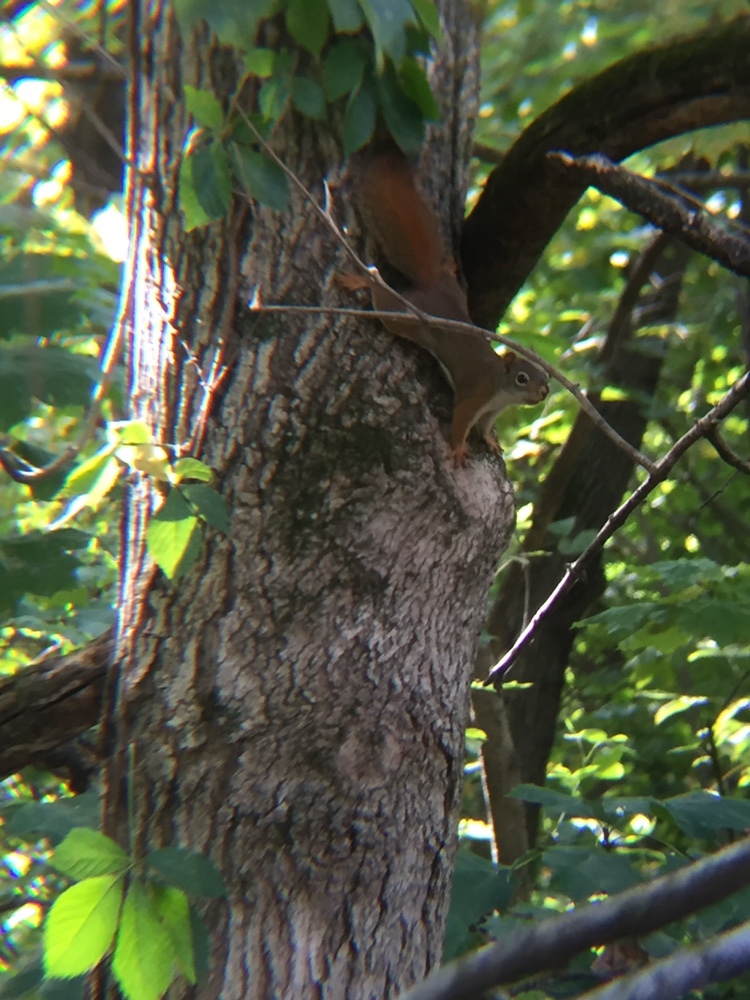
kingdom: Animalia
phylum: Chordata
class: Mammalia
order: Rodentia
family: Sciuridae
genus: Tamiasciurus
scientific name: Tamiasciurus hudsonicus
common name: Red squirrel
